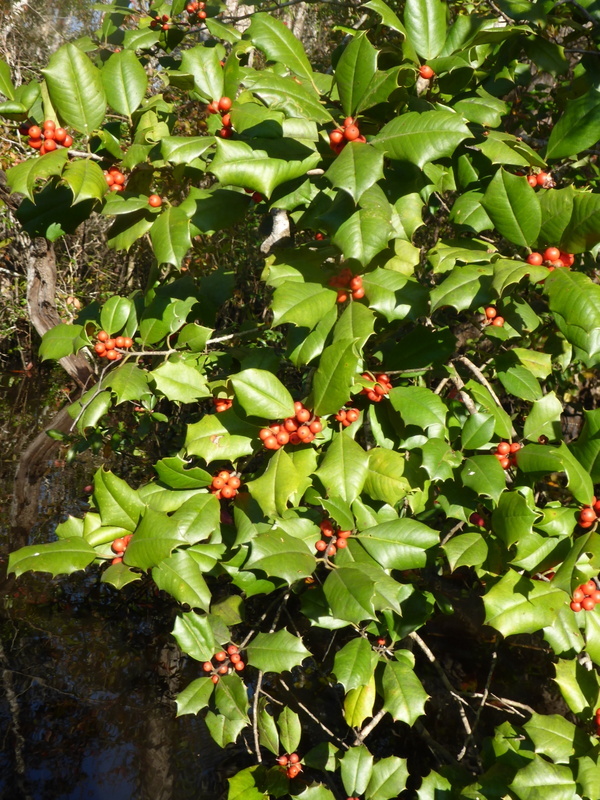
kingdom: Plantae
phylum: Tracheophyta
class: Magnoliopsida
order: Aquifoliales
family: Aquifoliaceae
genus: Ilex
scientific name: Ilex opaca
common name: American holly
